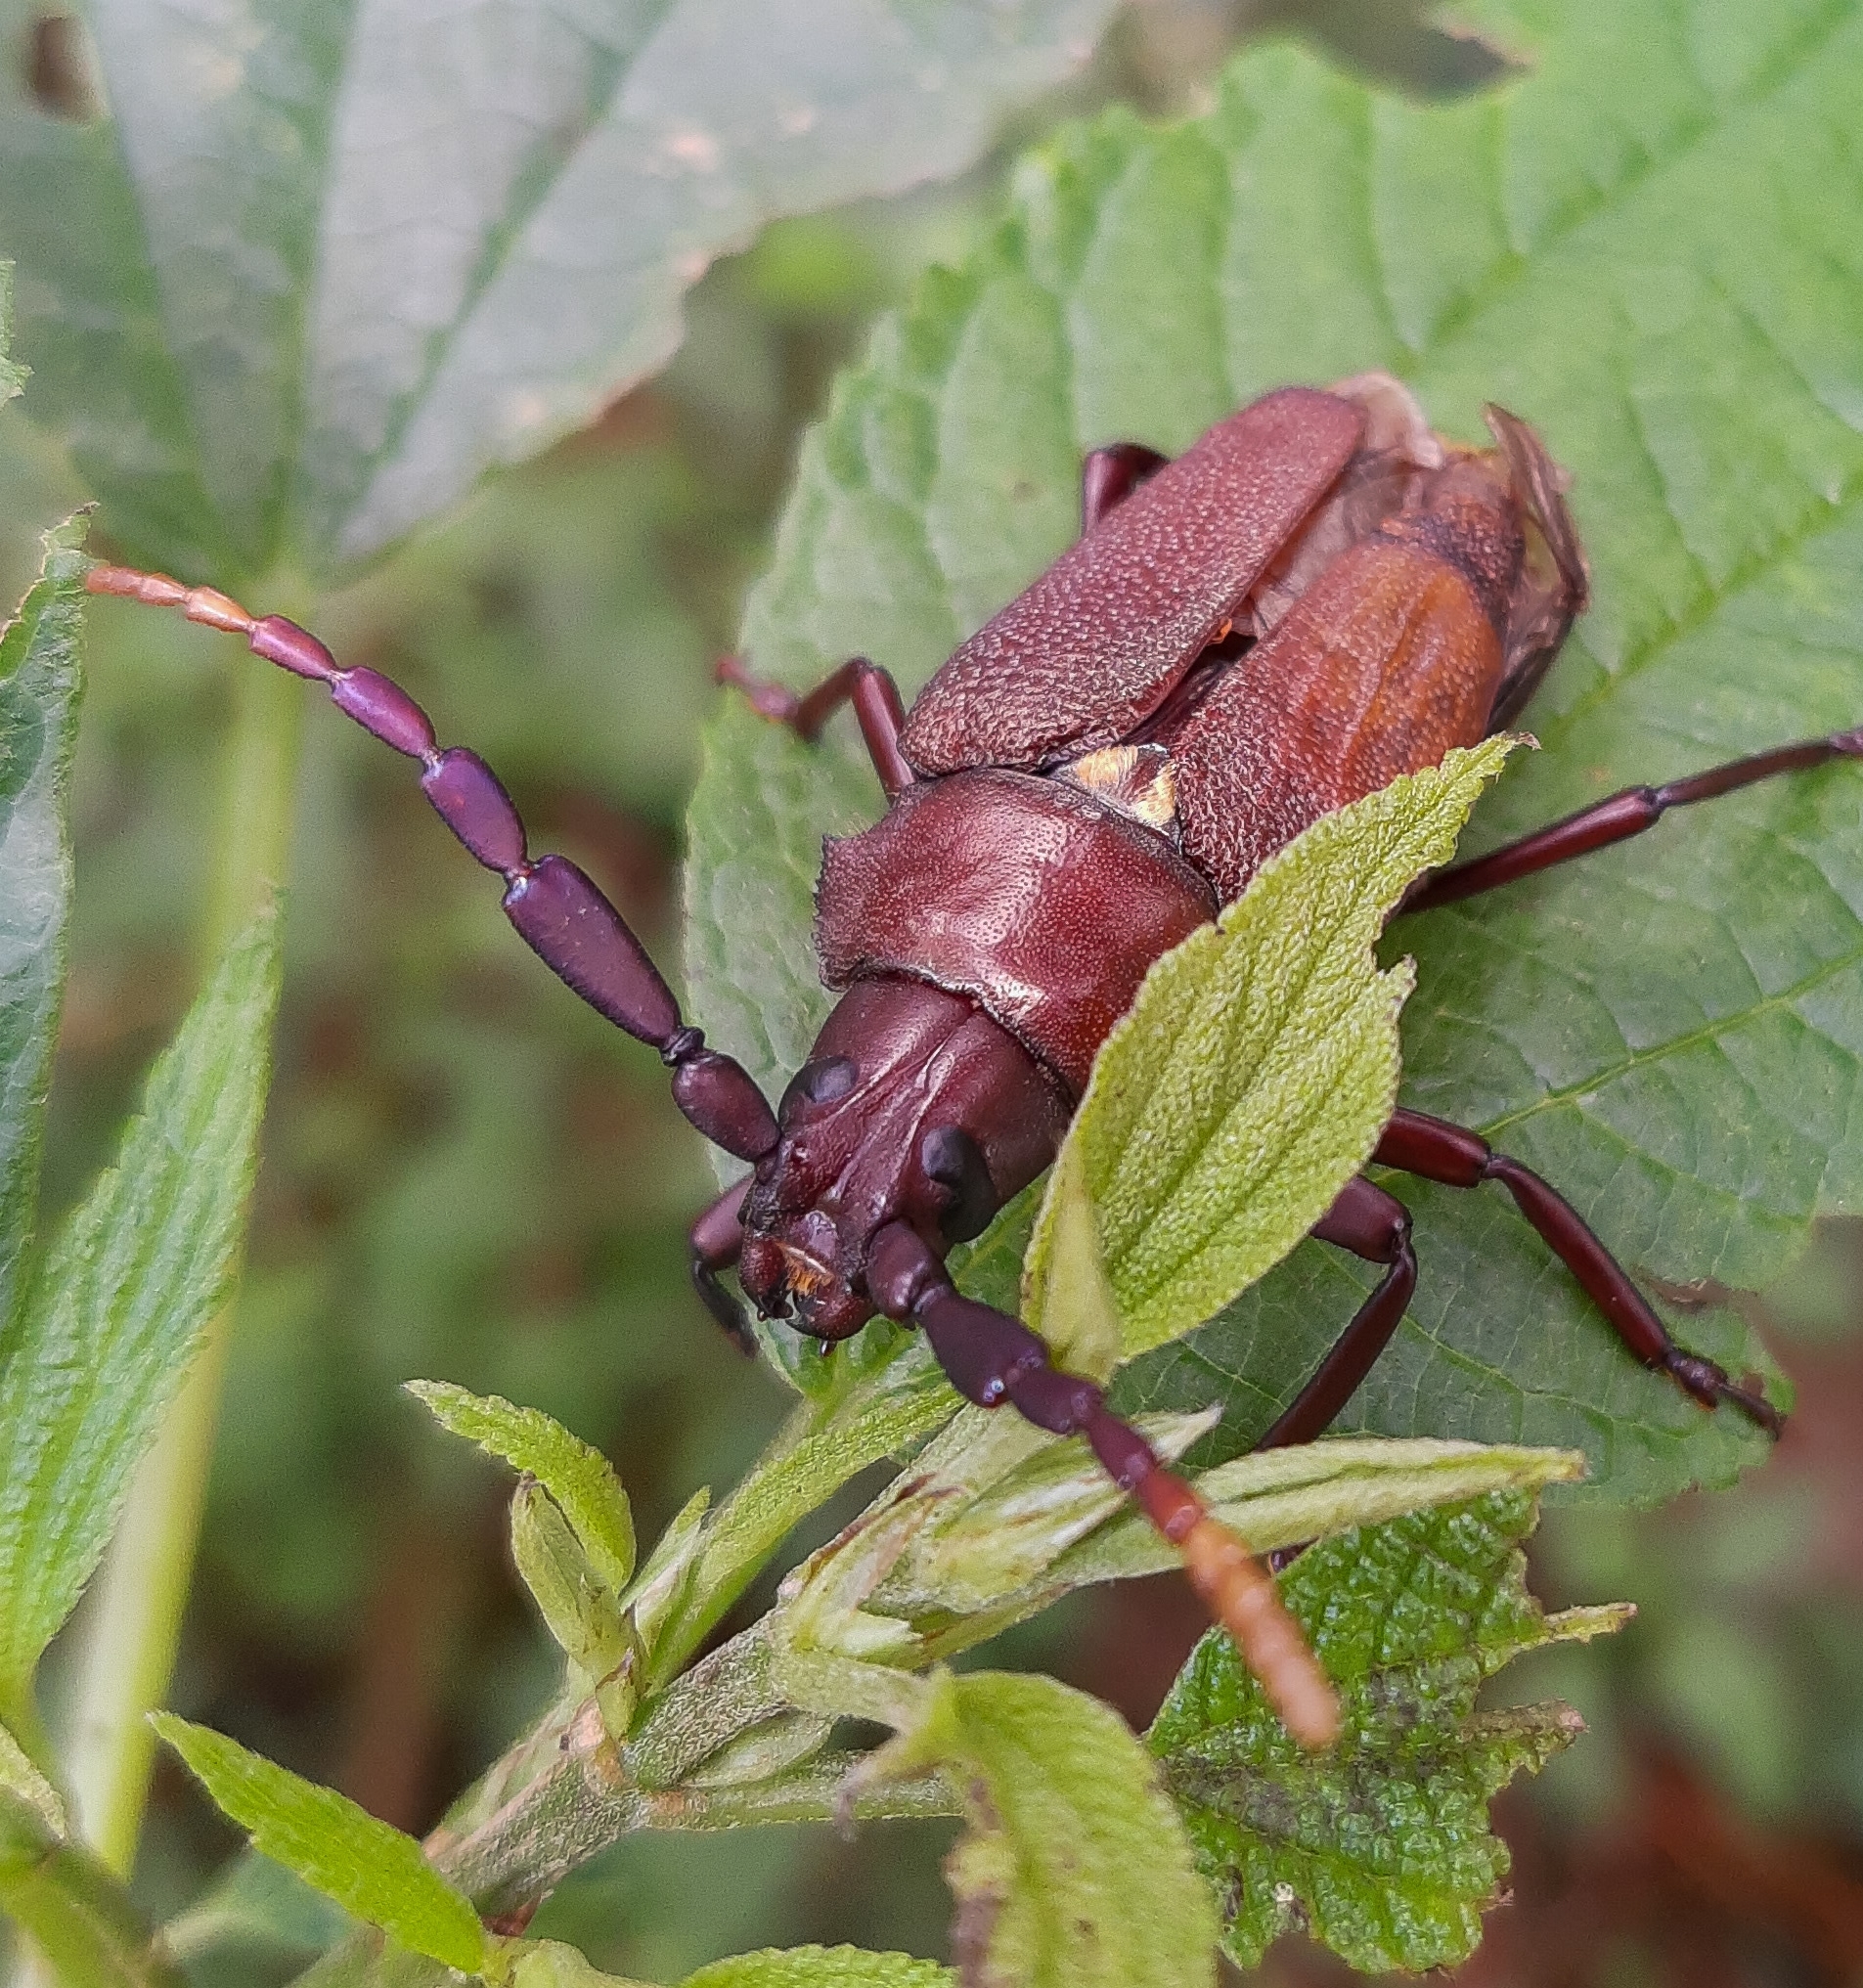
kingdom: Animalia
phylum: Arthropoda
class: Insecta
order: Coleoptera
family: Cerambycidae
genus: Praemallaspis
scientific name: Praemallaspis leucaspis
